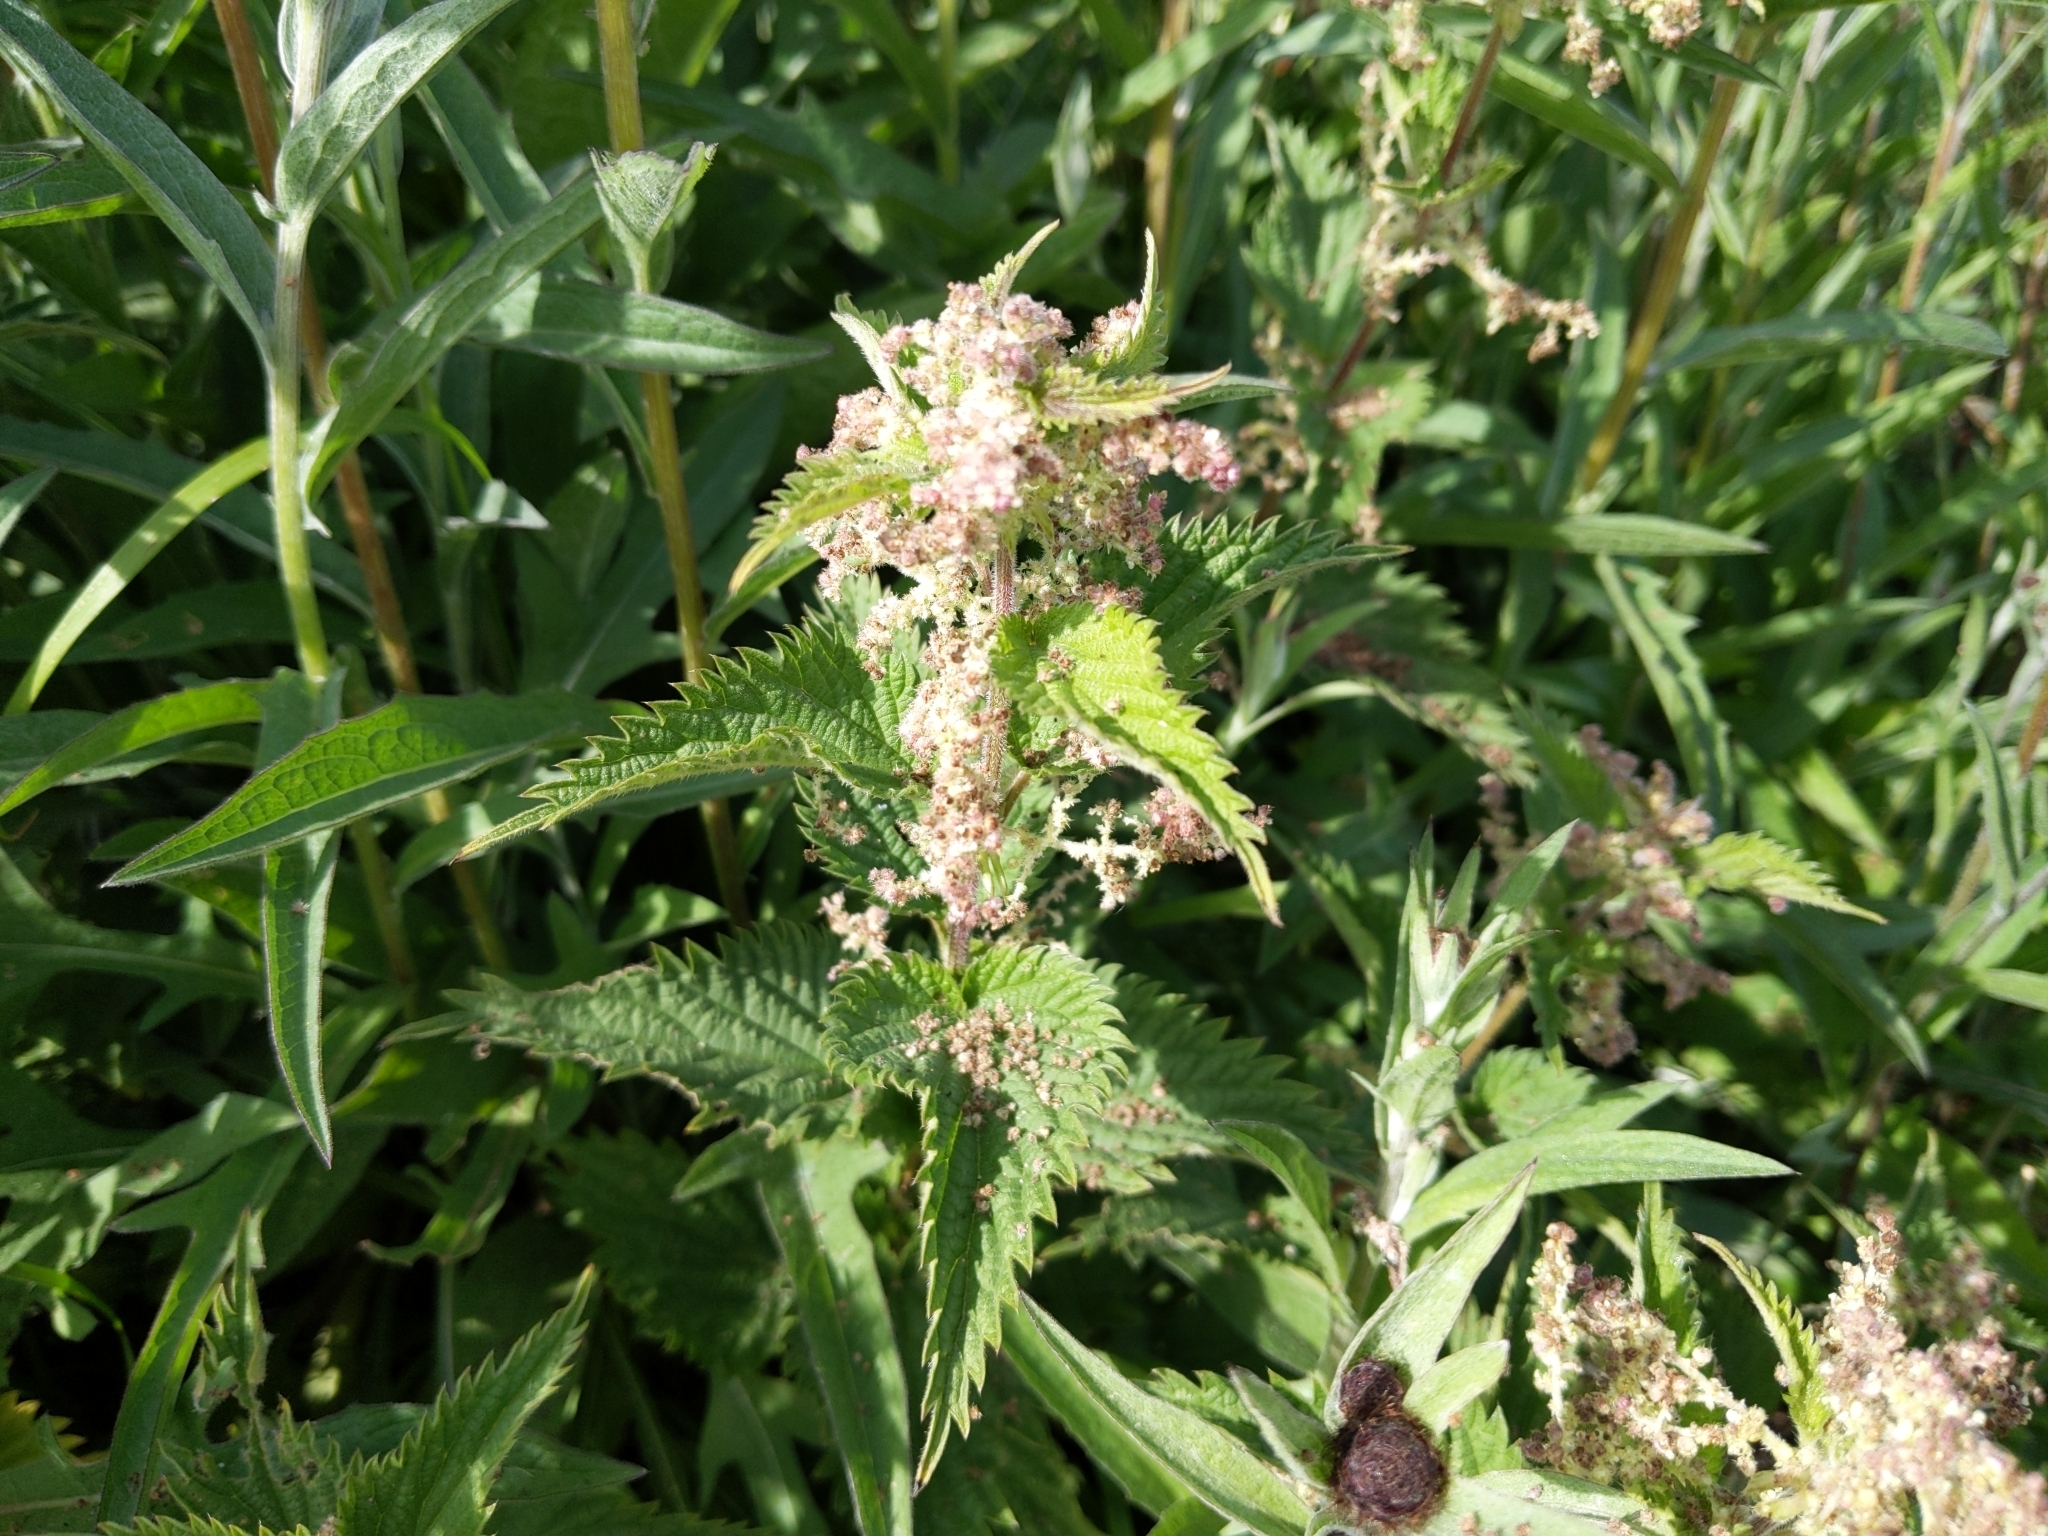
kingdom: Plantae
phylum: Tracheophyta
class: Magnoliopsida
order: Rosales
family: Urticaceae
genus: Urtica
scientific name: Urtica dioica
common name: Common nettle
